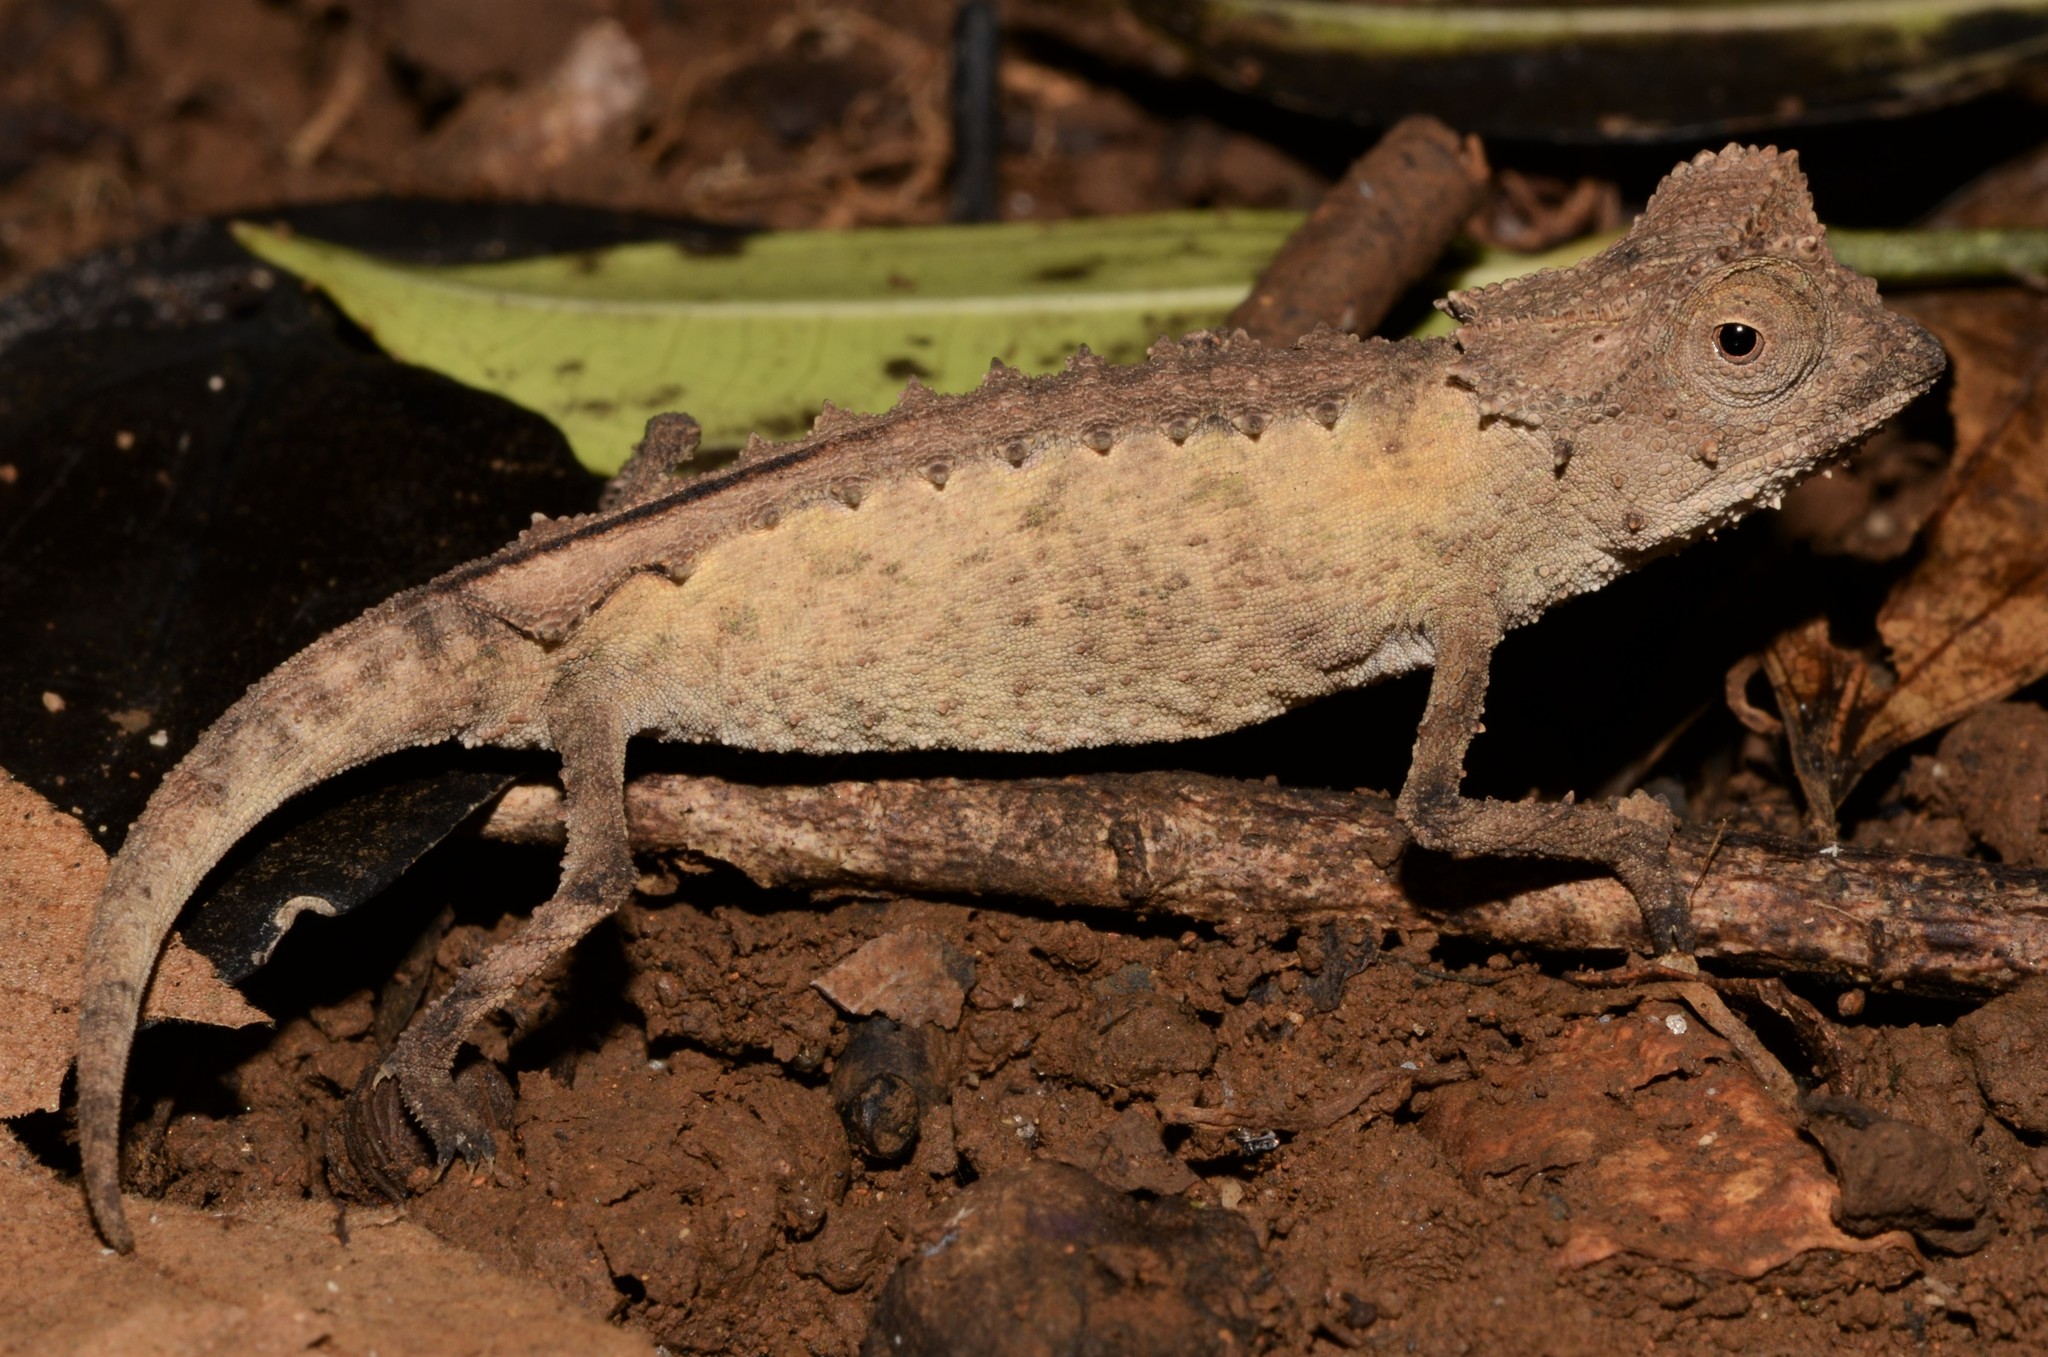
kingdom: Animalia
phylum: Chordata
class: Squamata
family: Chamaeleonidae
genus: Brookesia
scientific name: Brookesia stumpffi
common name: Plated leaf chameleon
